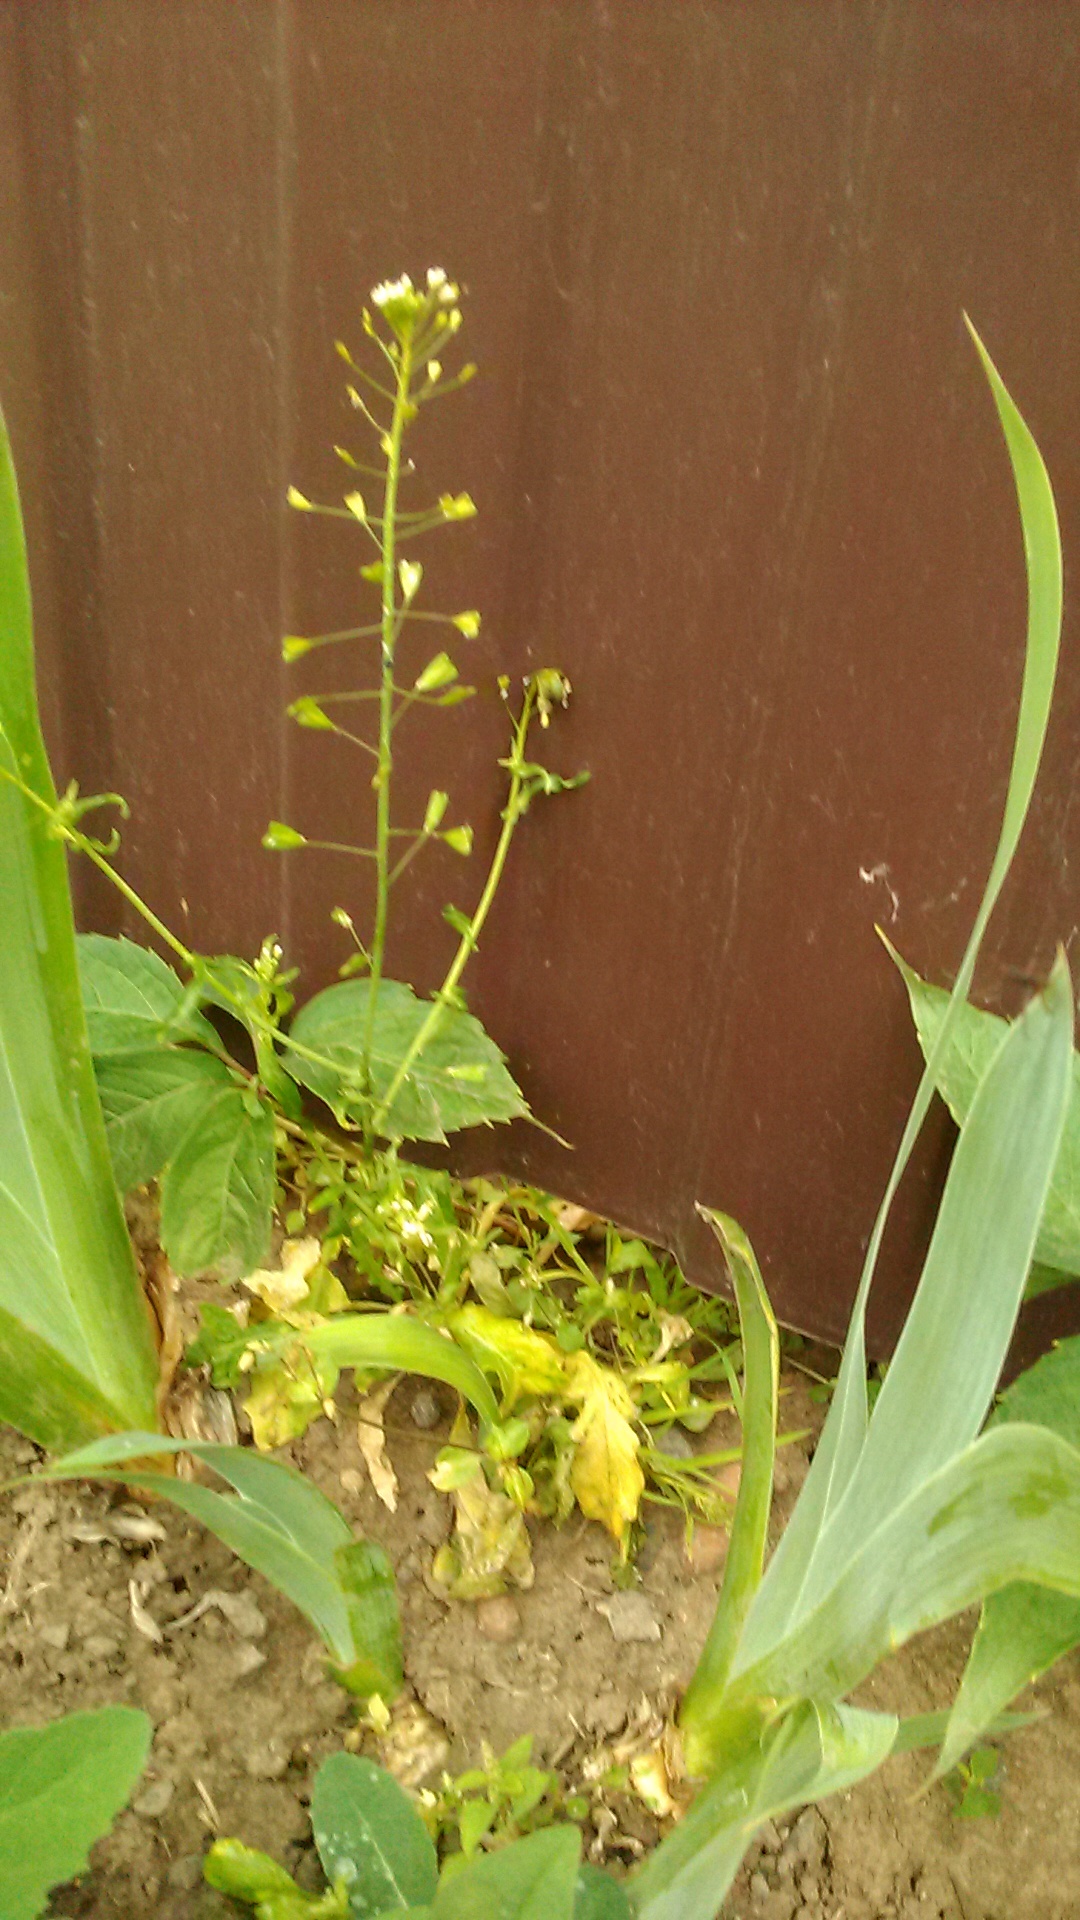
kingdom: Plantae
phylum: Tracheophyta
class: Magnoliopsida
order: Brassicales
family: Brassicaceae
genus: Capsella
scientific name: Capsella bursa-pastoris
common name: Shepherd's purse
